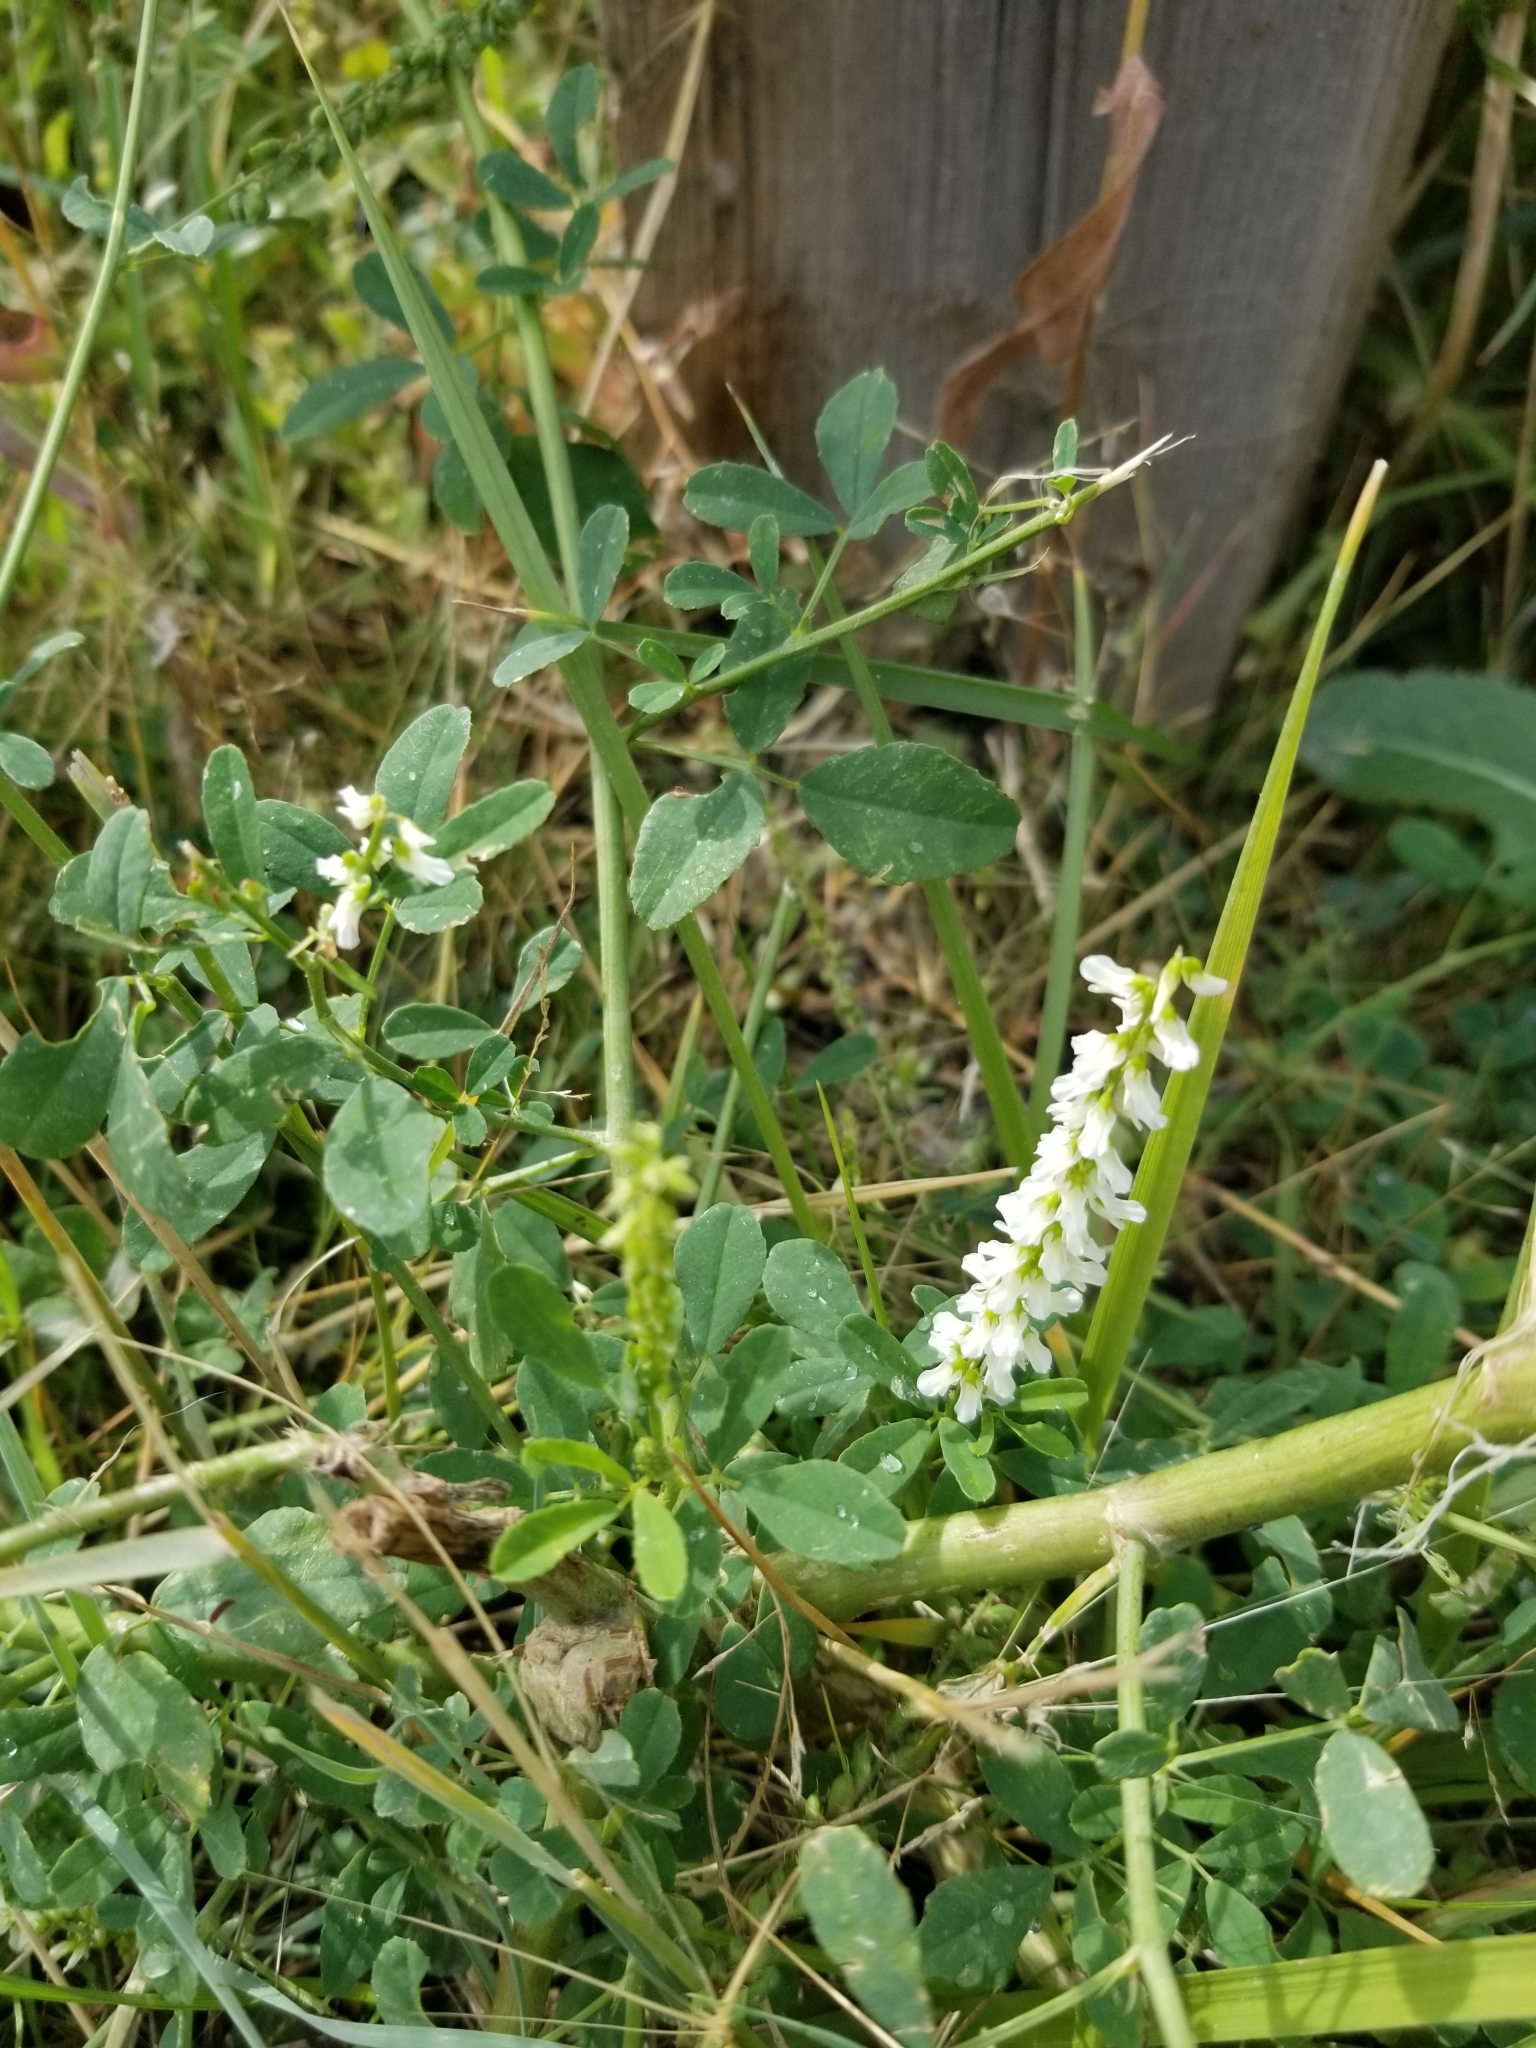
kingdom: Plantae
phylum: Tracheophyta
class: Magnoliopsida
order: Fabales
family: Fabaceae
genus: Melilotus
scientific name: Melilotus albus
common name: White melilot
